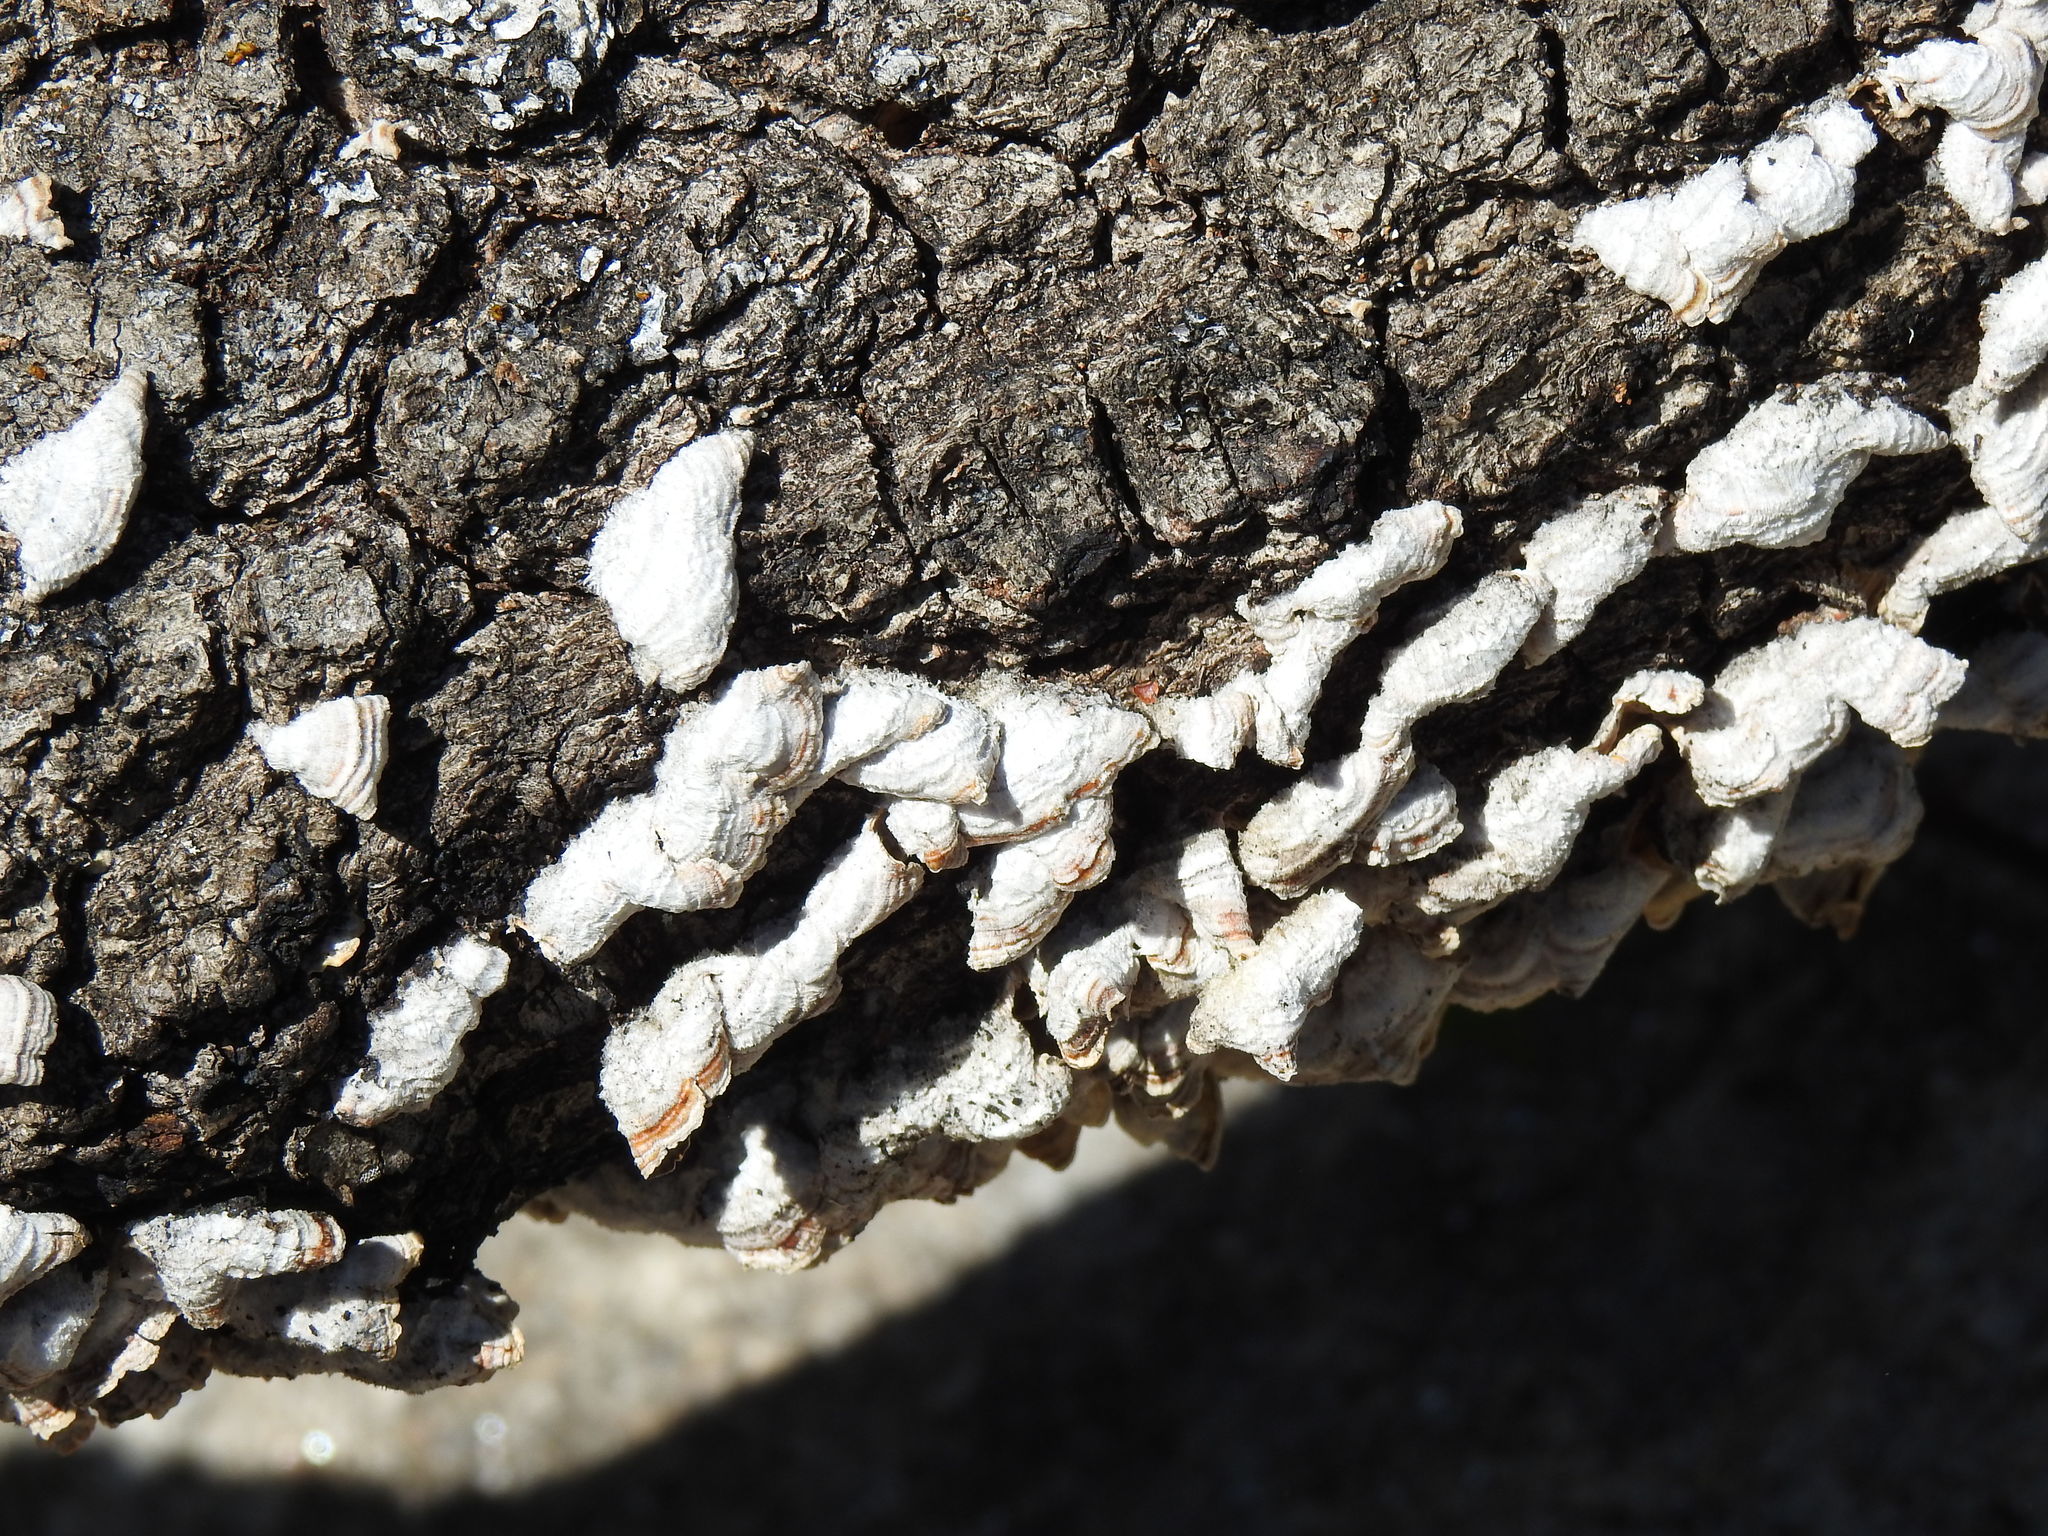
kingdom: Fungi
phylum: Basidiomycota
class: Agaricomycetes
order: Agaricales
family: Schizophyllaceae
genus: Schizophyllum
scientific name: Schizophyllum commune
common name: Common porecrust
